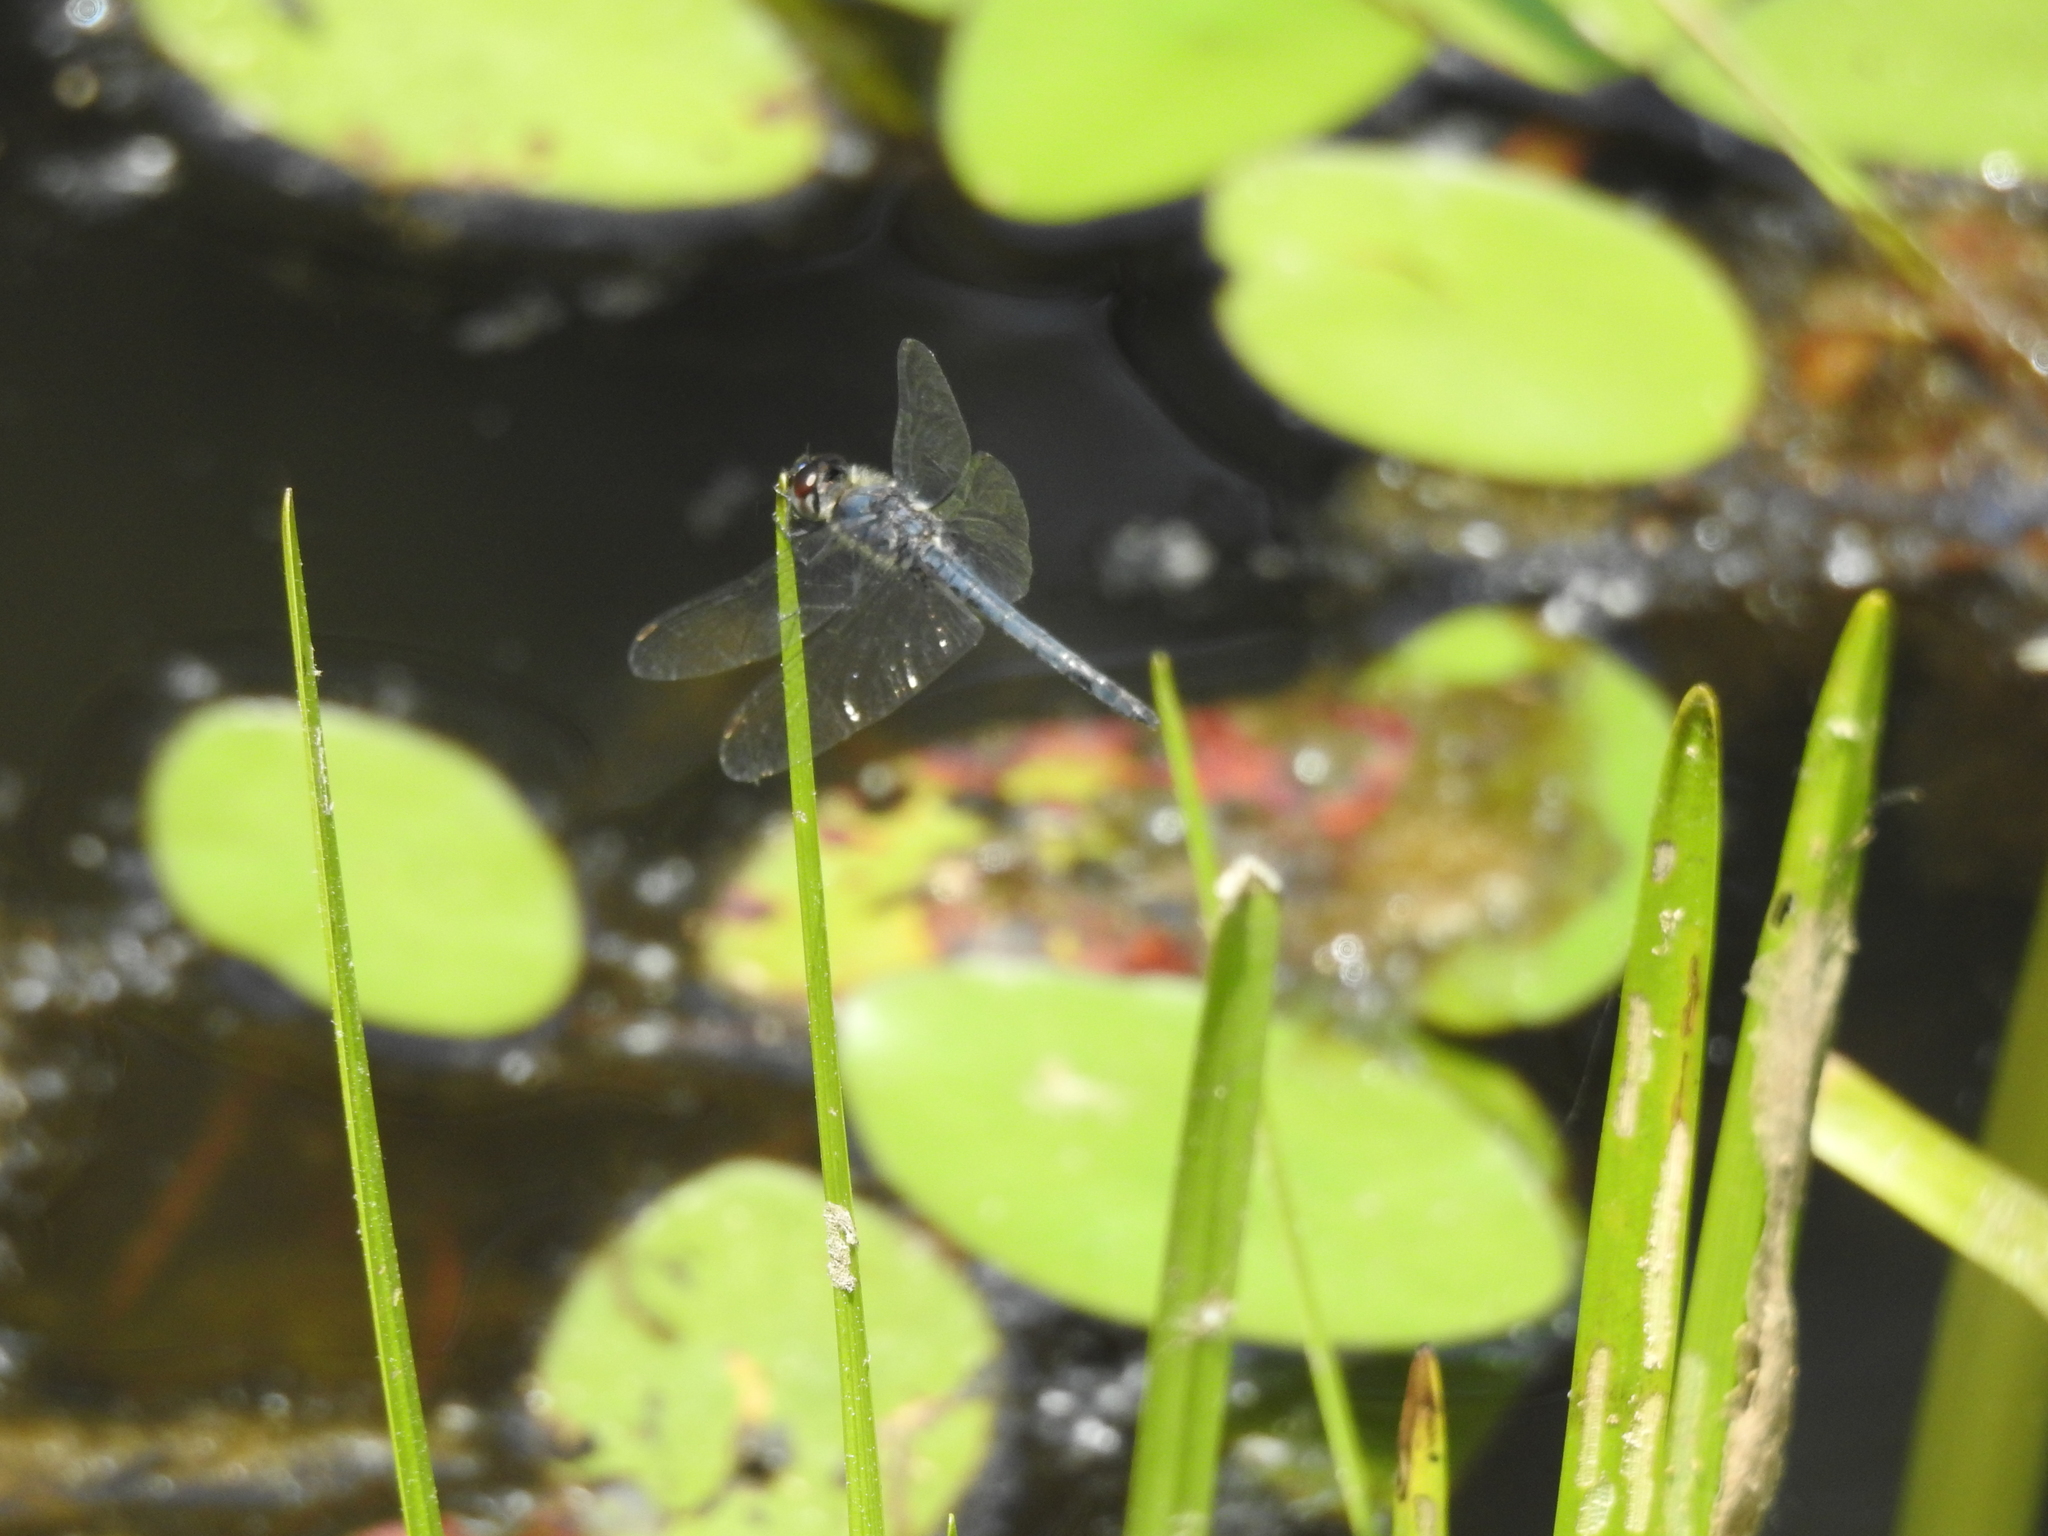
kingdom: Animalia
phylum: Arthropoda
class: Insecta
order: Odonata
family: Libellulidae
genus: Libellula
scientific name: Libellula incesta
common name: Slaty skimmer
